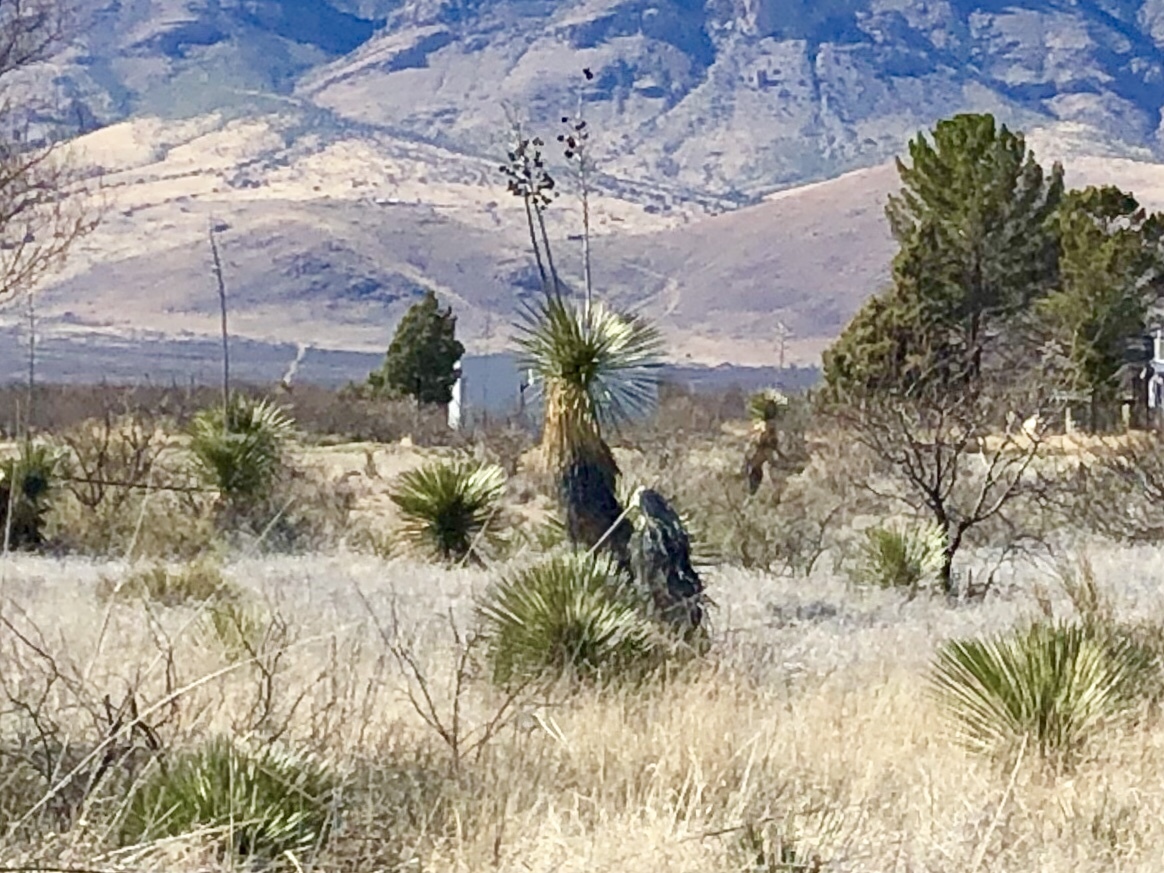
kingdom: Plantae
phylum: Tracheophyta
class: Liliopsida
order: Asparagales
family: Asparagaceae
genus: Yucca
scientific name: Yucca elata
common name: Palmella
